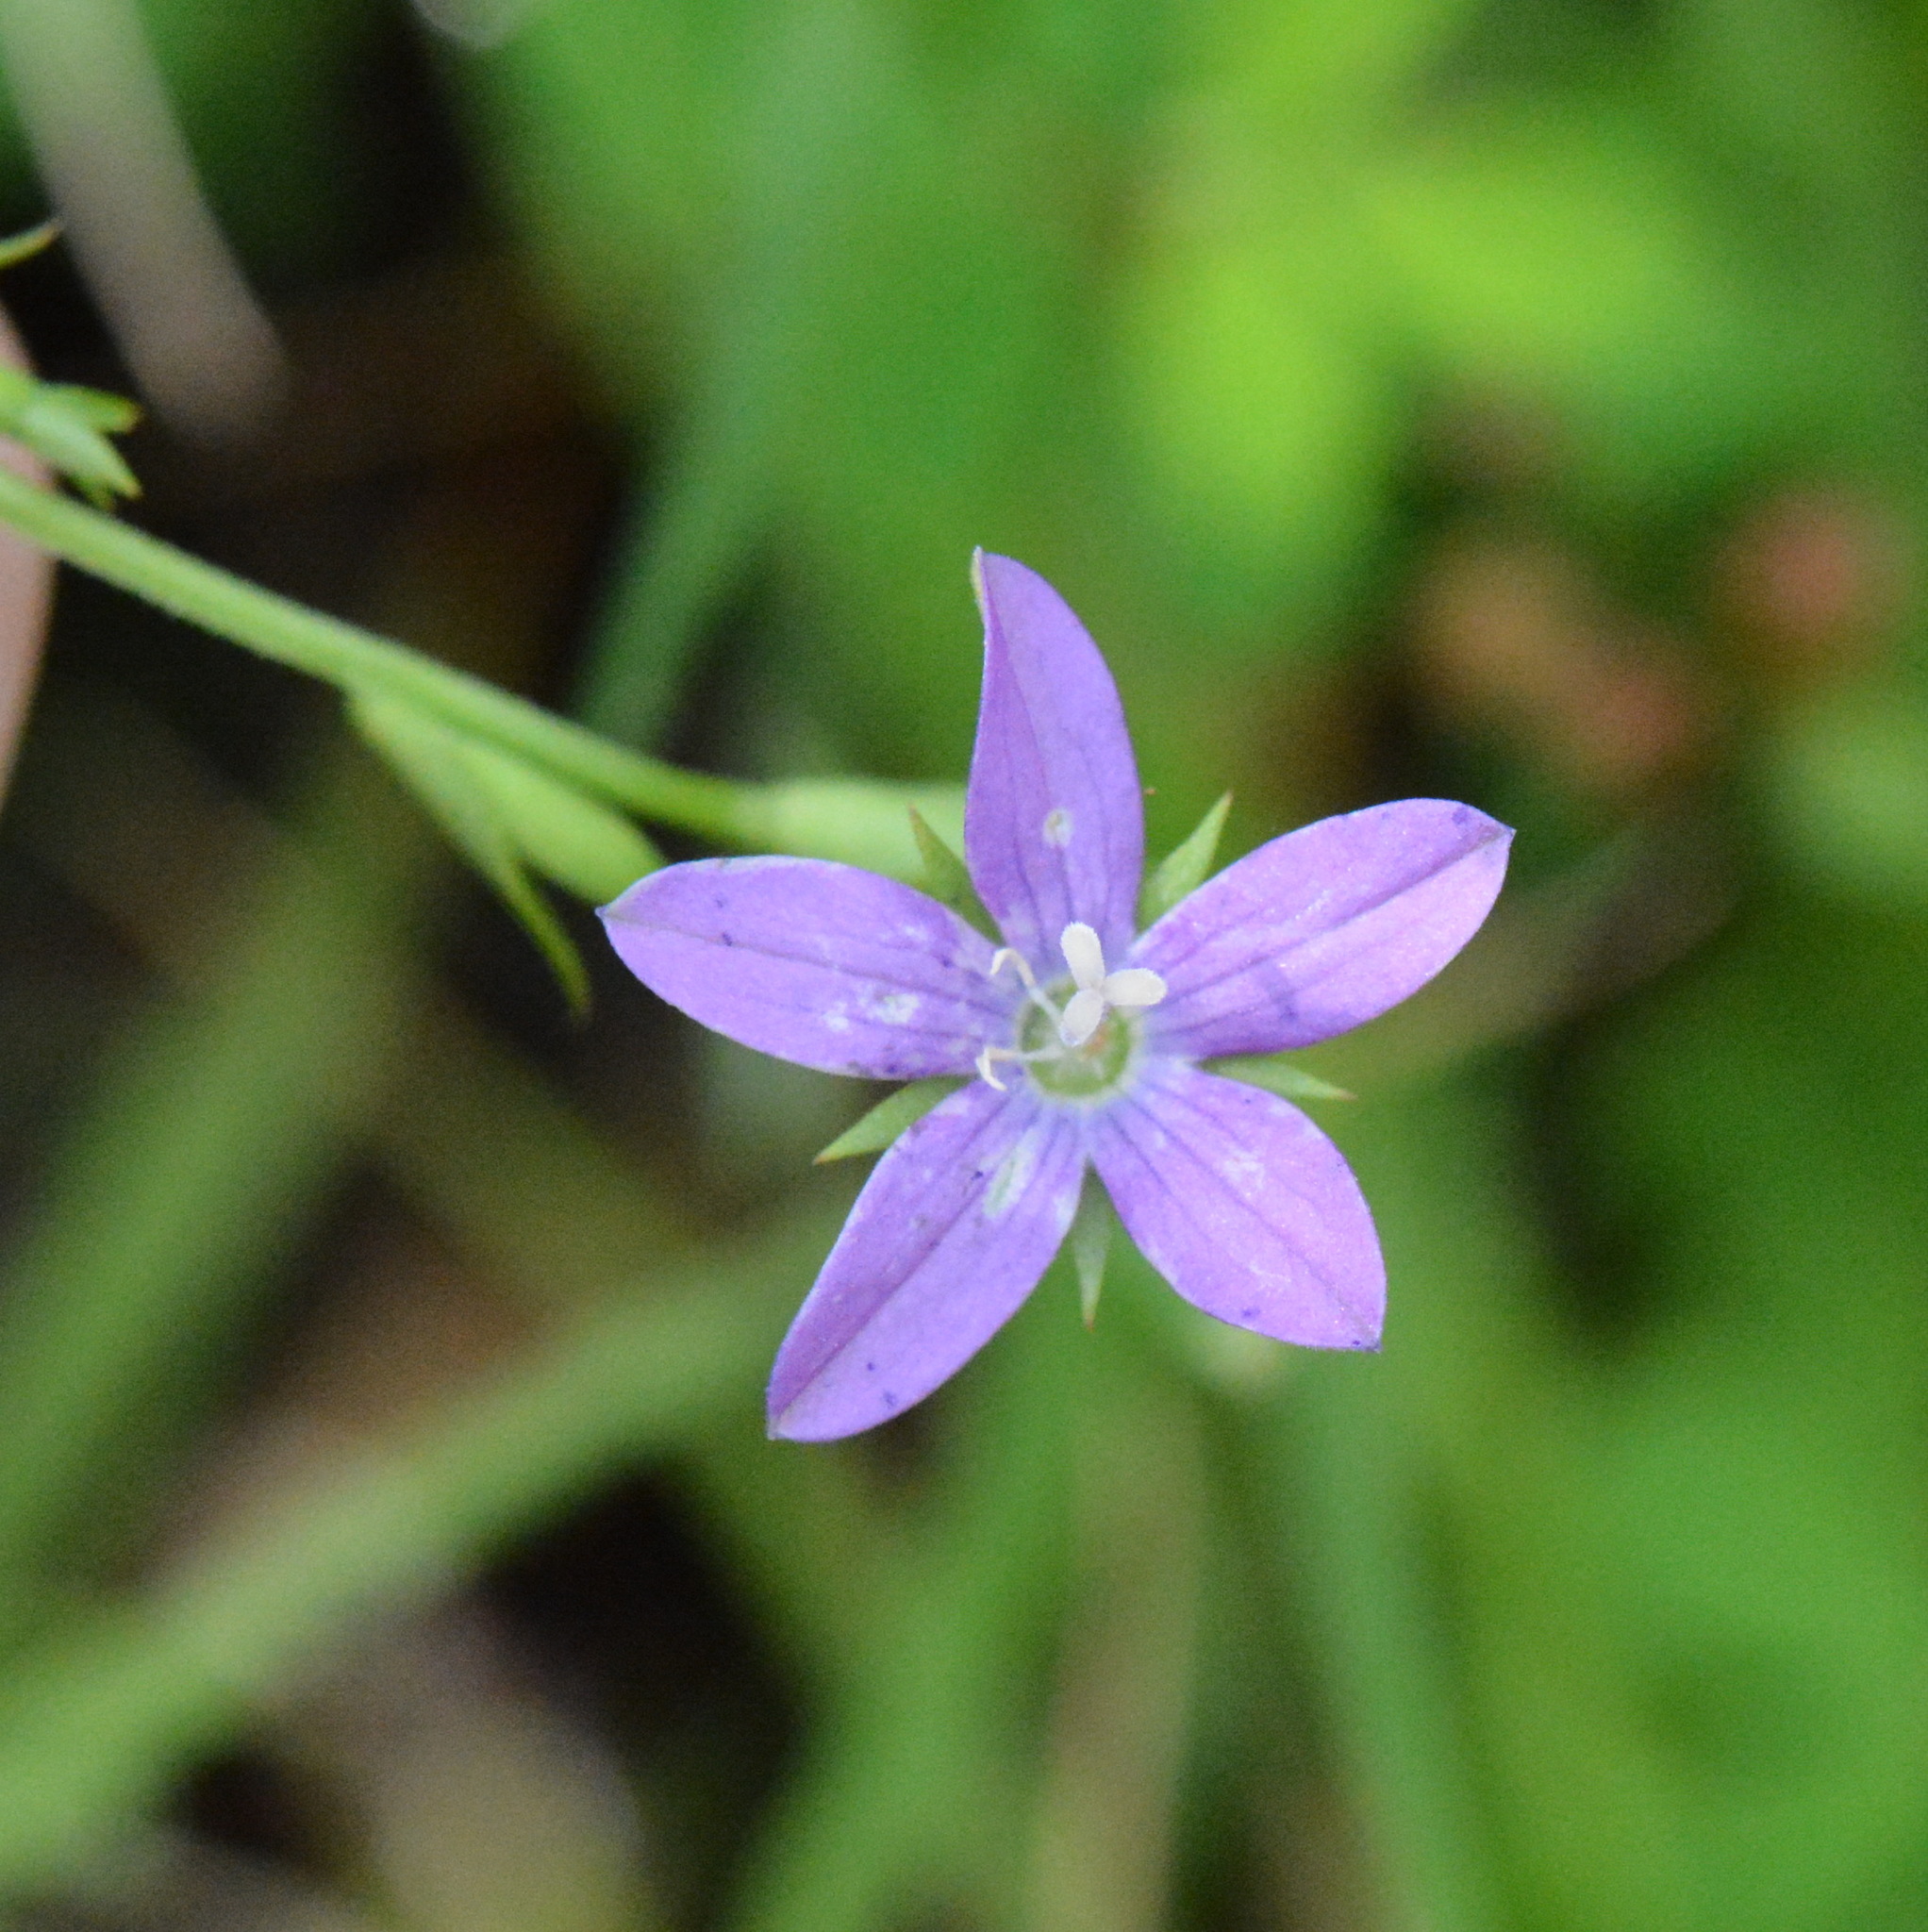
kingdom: Plantae
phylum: Tracheophyta
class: Magnoliopsida
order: Asterales
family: Campanulaceae
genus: Triodanis
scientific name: Triodanis biflora
